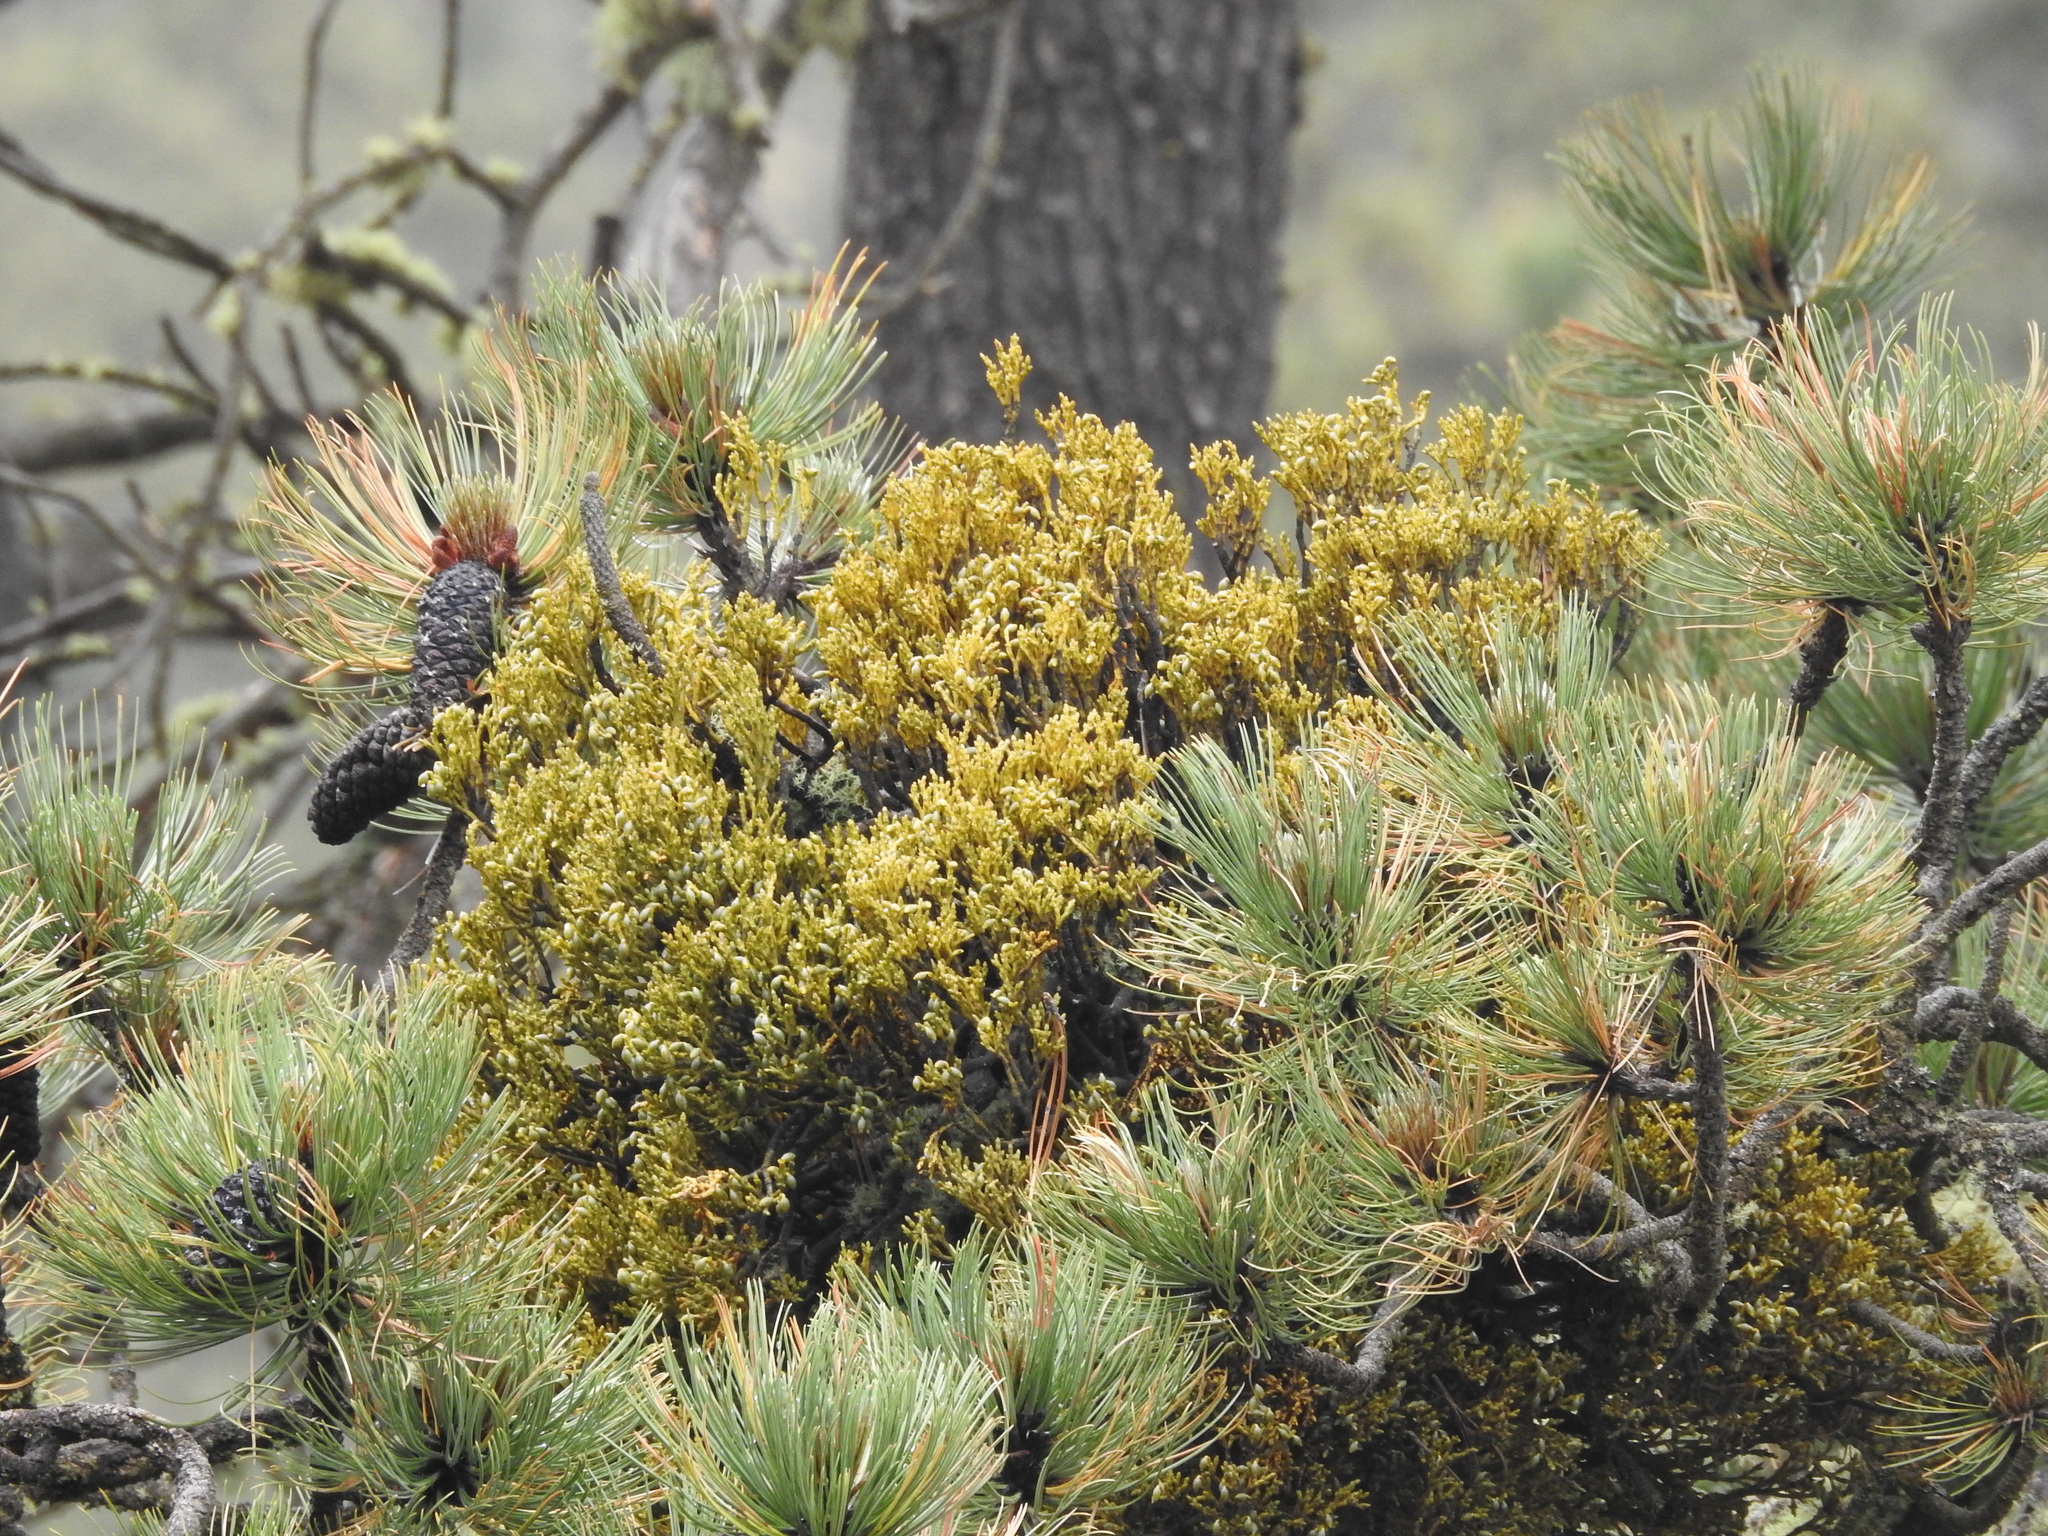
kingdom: Plantae
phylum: Tracheophyta
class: Magnoliopsida
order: Santalales
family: Viscaceae
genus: Arceuthobium
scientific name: Arceuthobium globosum
